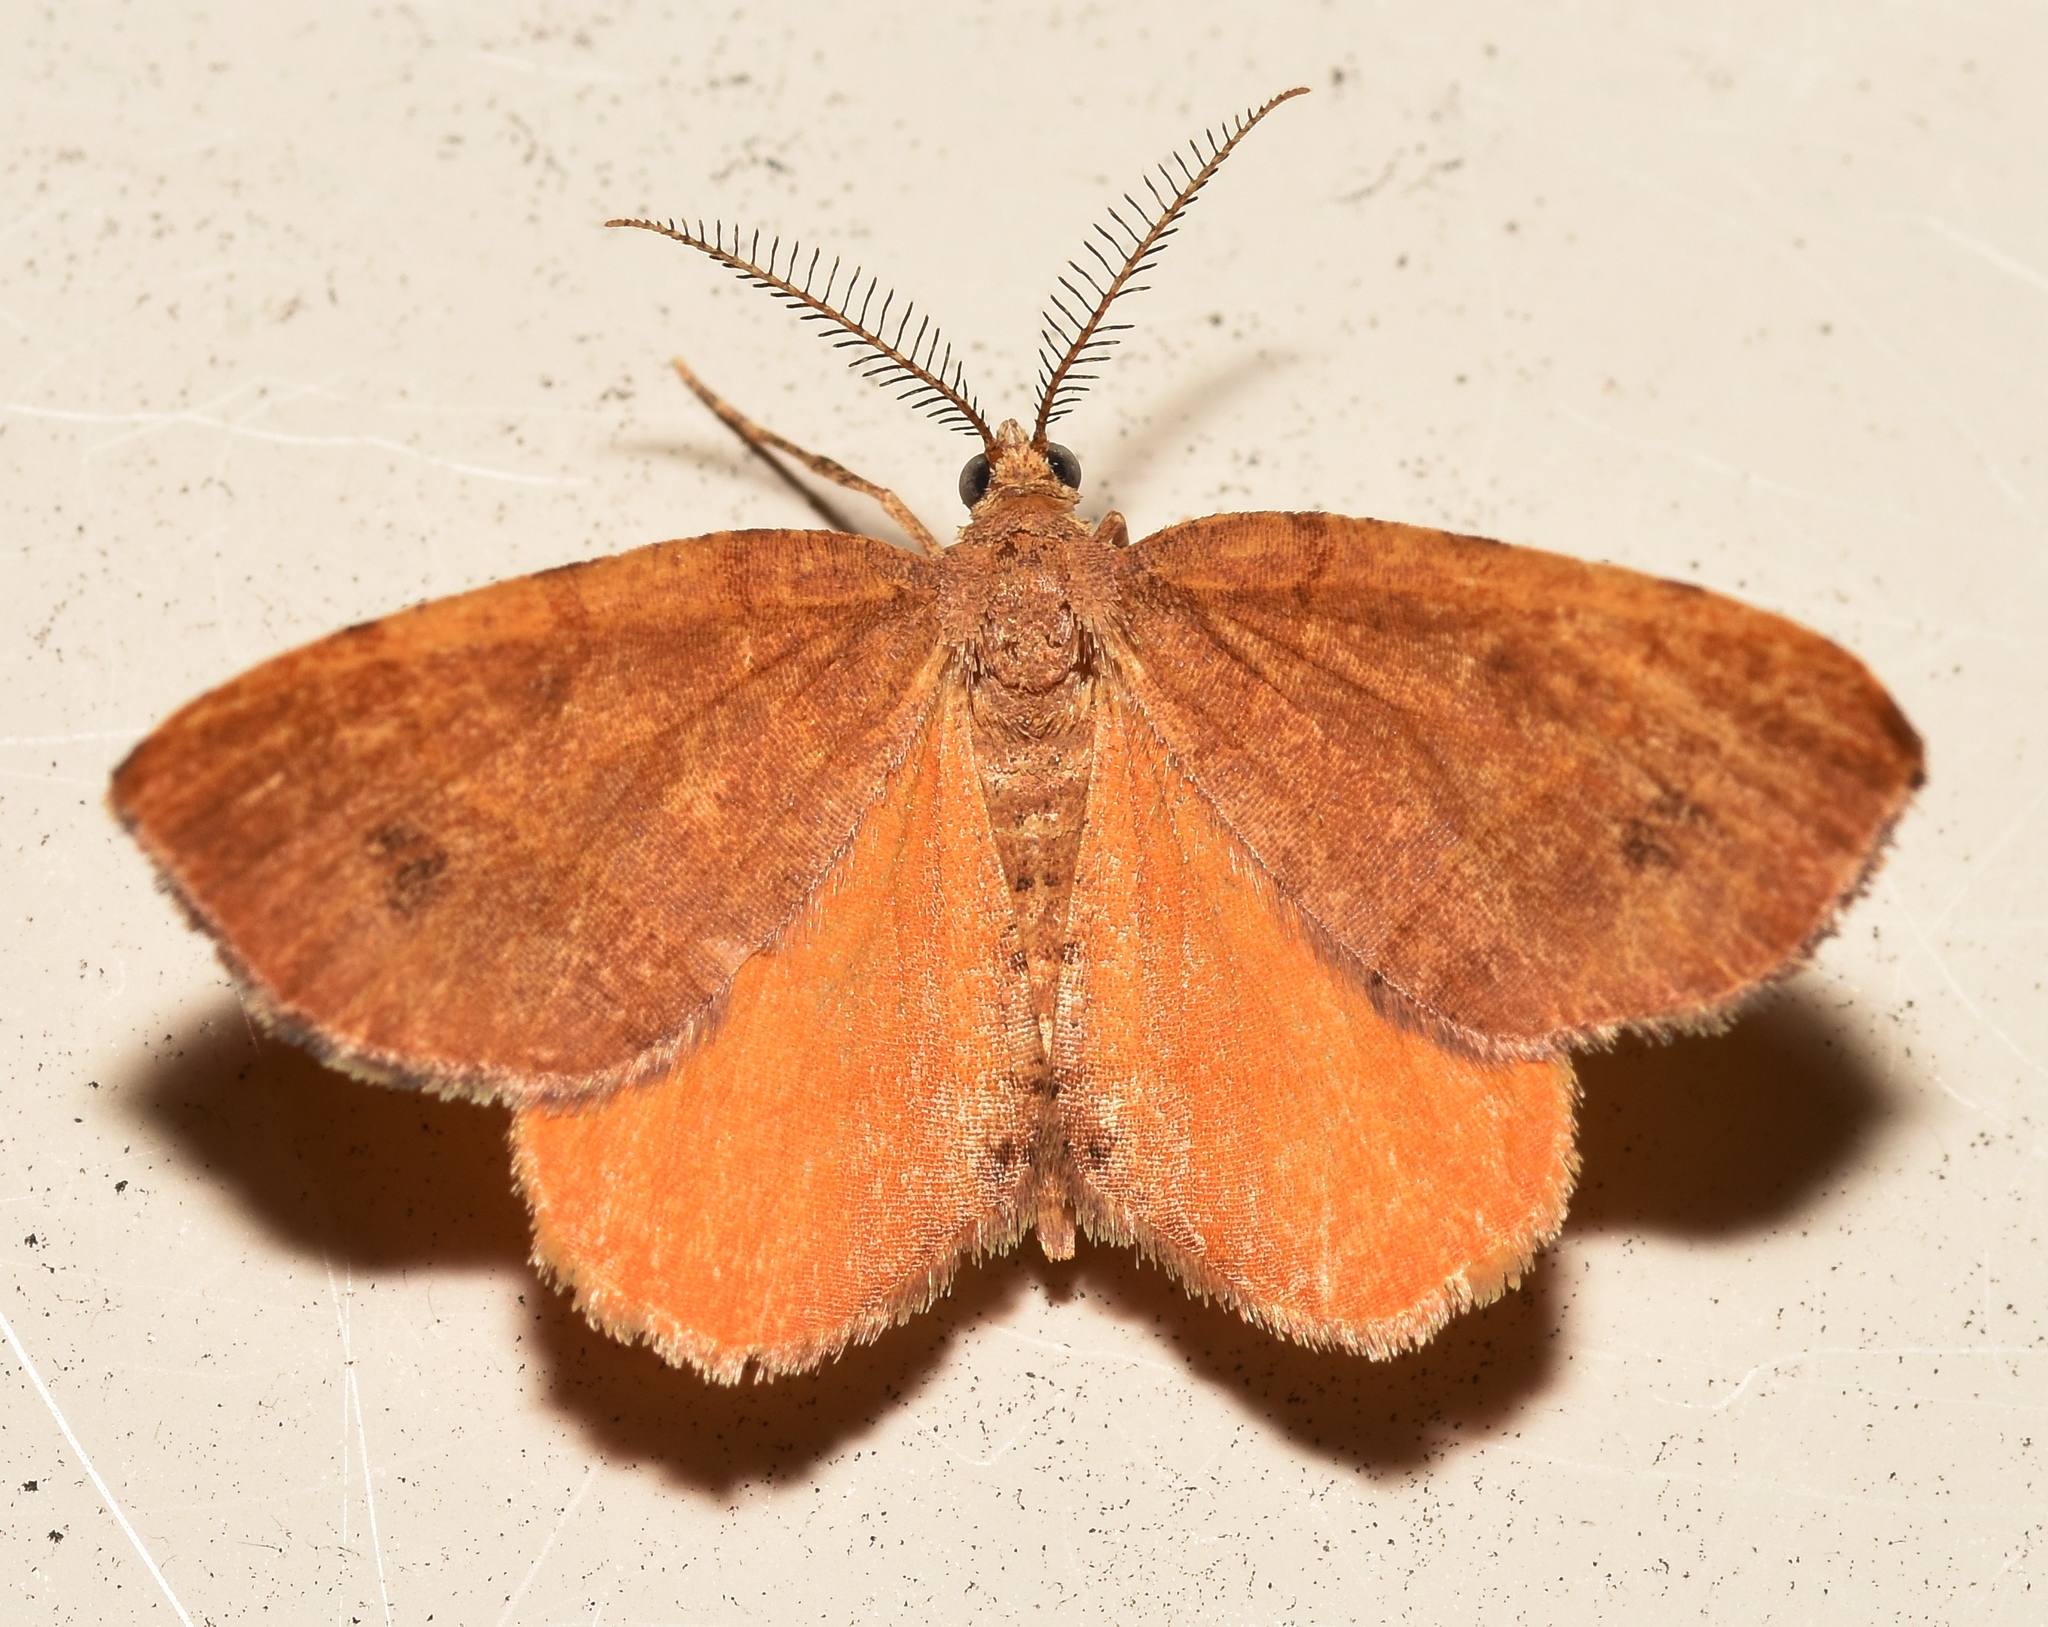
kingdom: Animalia
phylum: Arthropoda
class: Insecta
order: Lepidoptera
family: Geometridae
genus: Mellilla
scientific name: Mellilla xanthometata
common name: Orange wing moth
